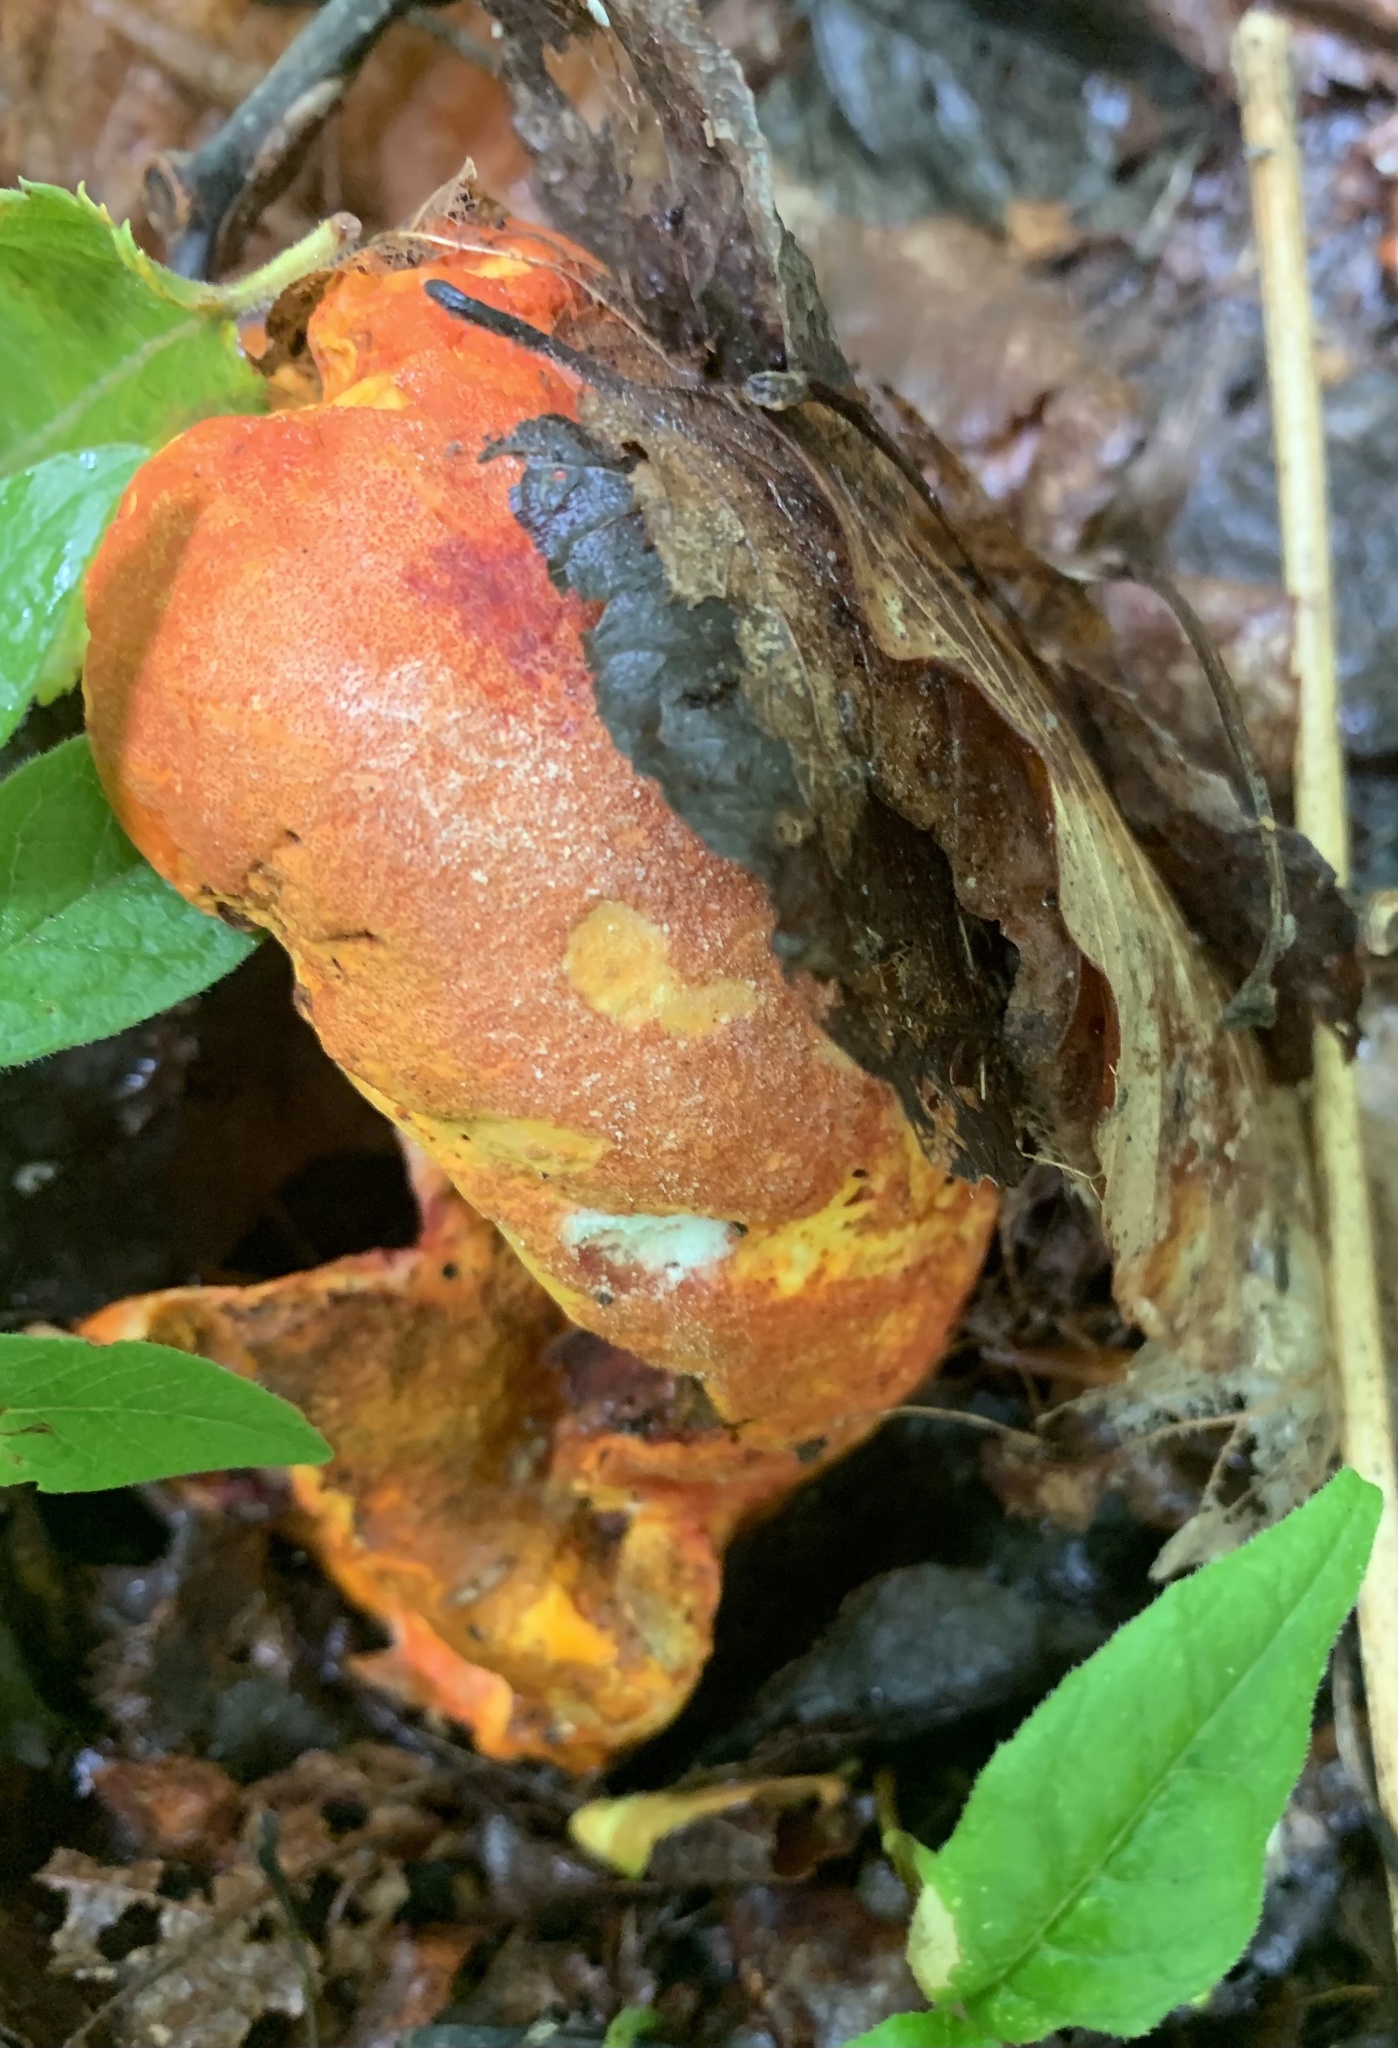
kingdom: Fungi
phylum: Ascomycota
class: Sordariomycetes
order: Hypocreales
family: Hypocreaceae
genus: Hypomyces
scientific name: Hypomyces lactifluorum
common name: Lobster mushroom
